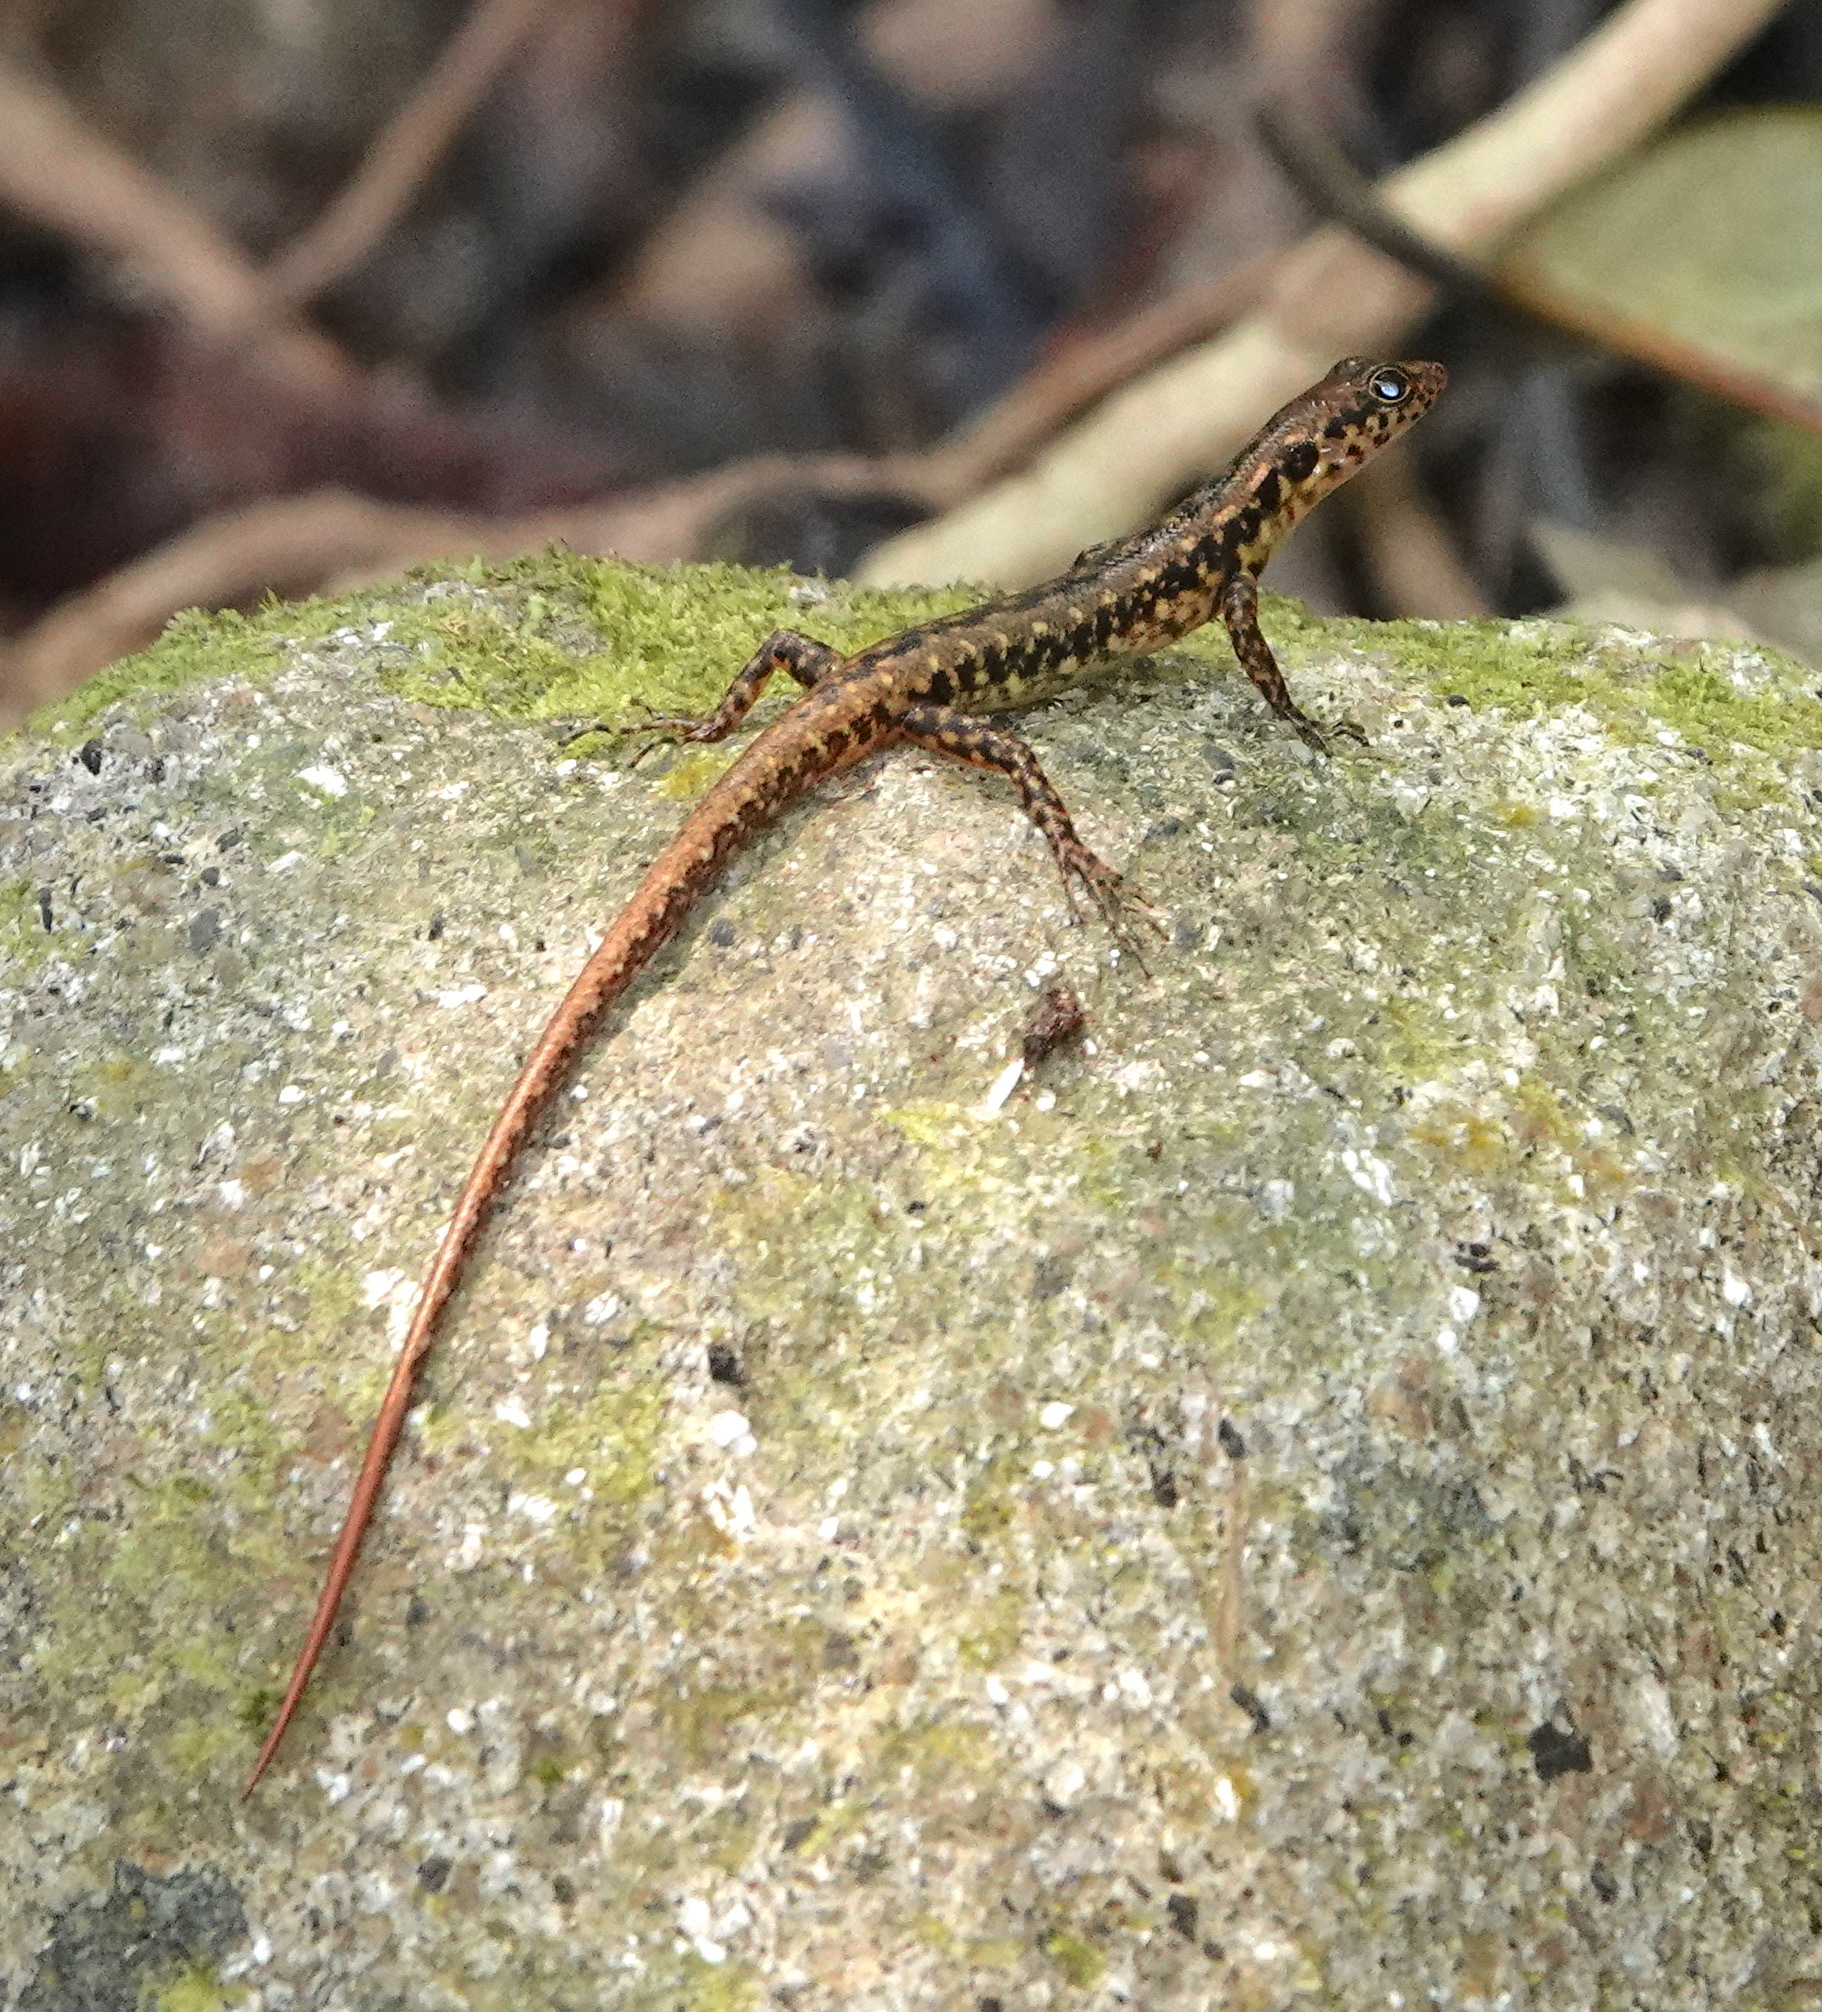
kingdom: Animalia
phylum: Chordata
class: Squamata
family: Scincidae
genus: Sphenomorphus
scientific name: Sphenomorphus scotophilus
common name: Selangor forest skink
